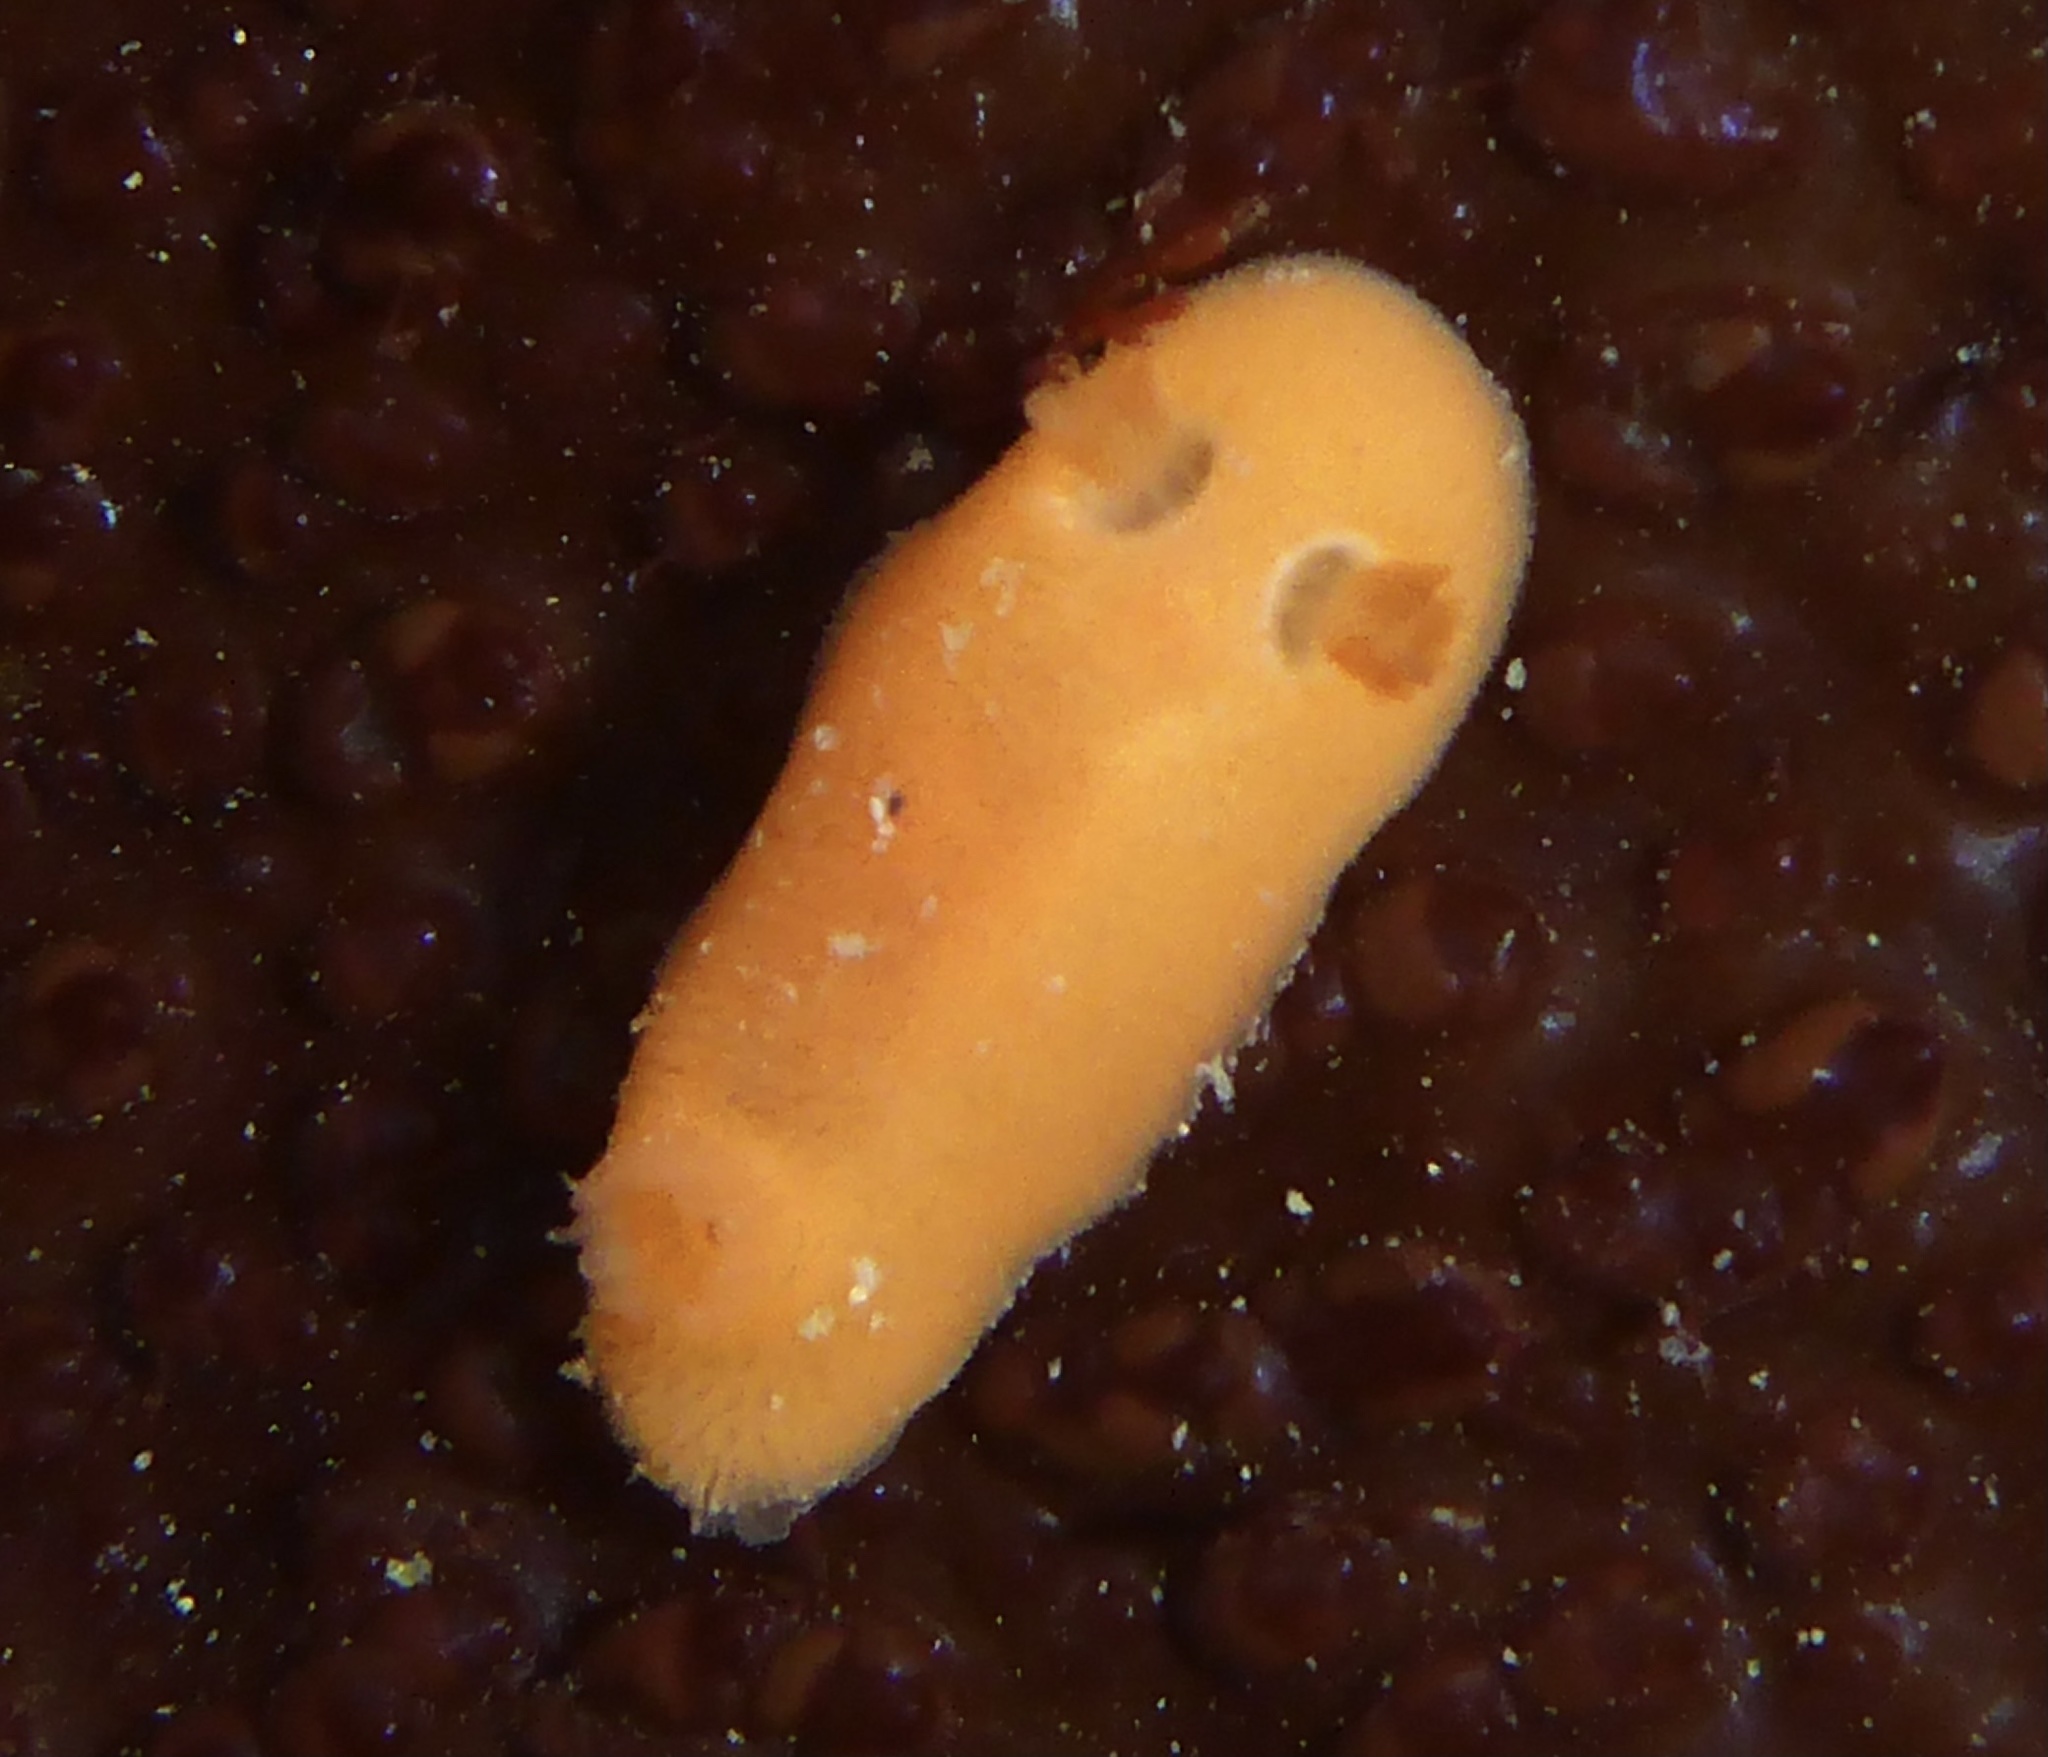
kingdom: Animalia
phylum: Mollusca
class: Gastropoda
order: Nudibranchia
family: Discodorididae
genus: Rostanga
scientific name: Rostanga pulchra
